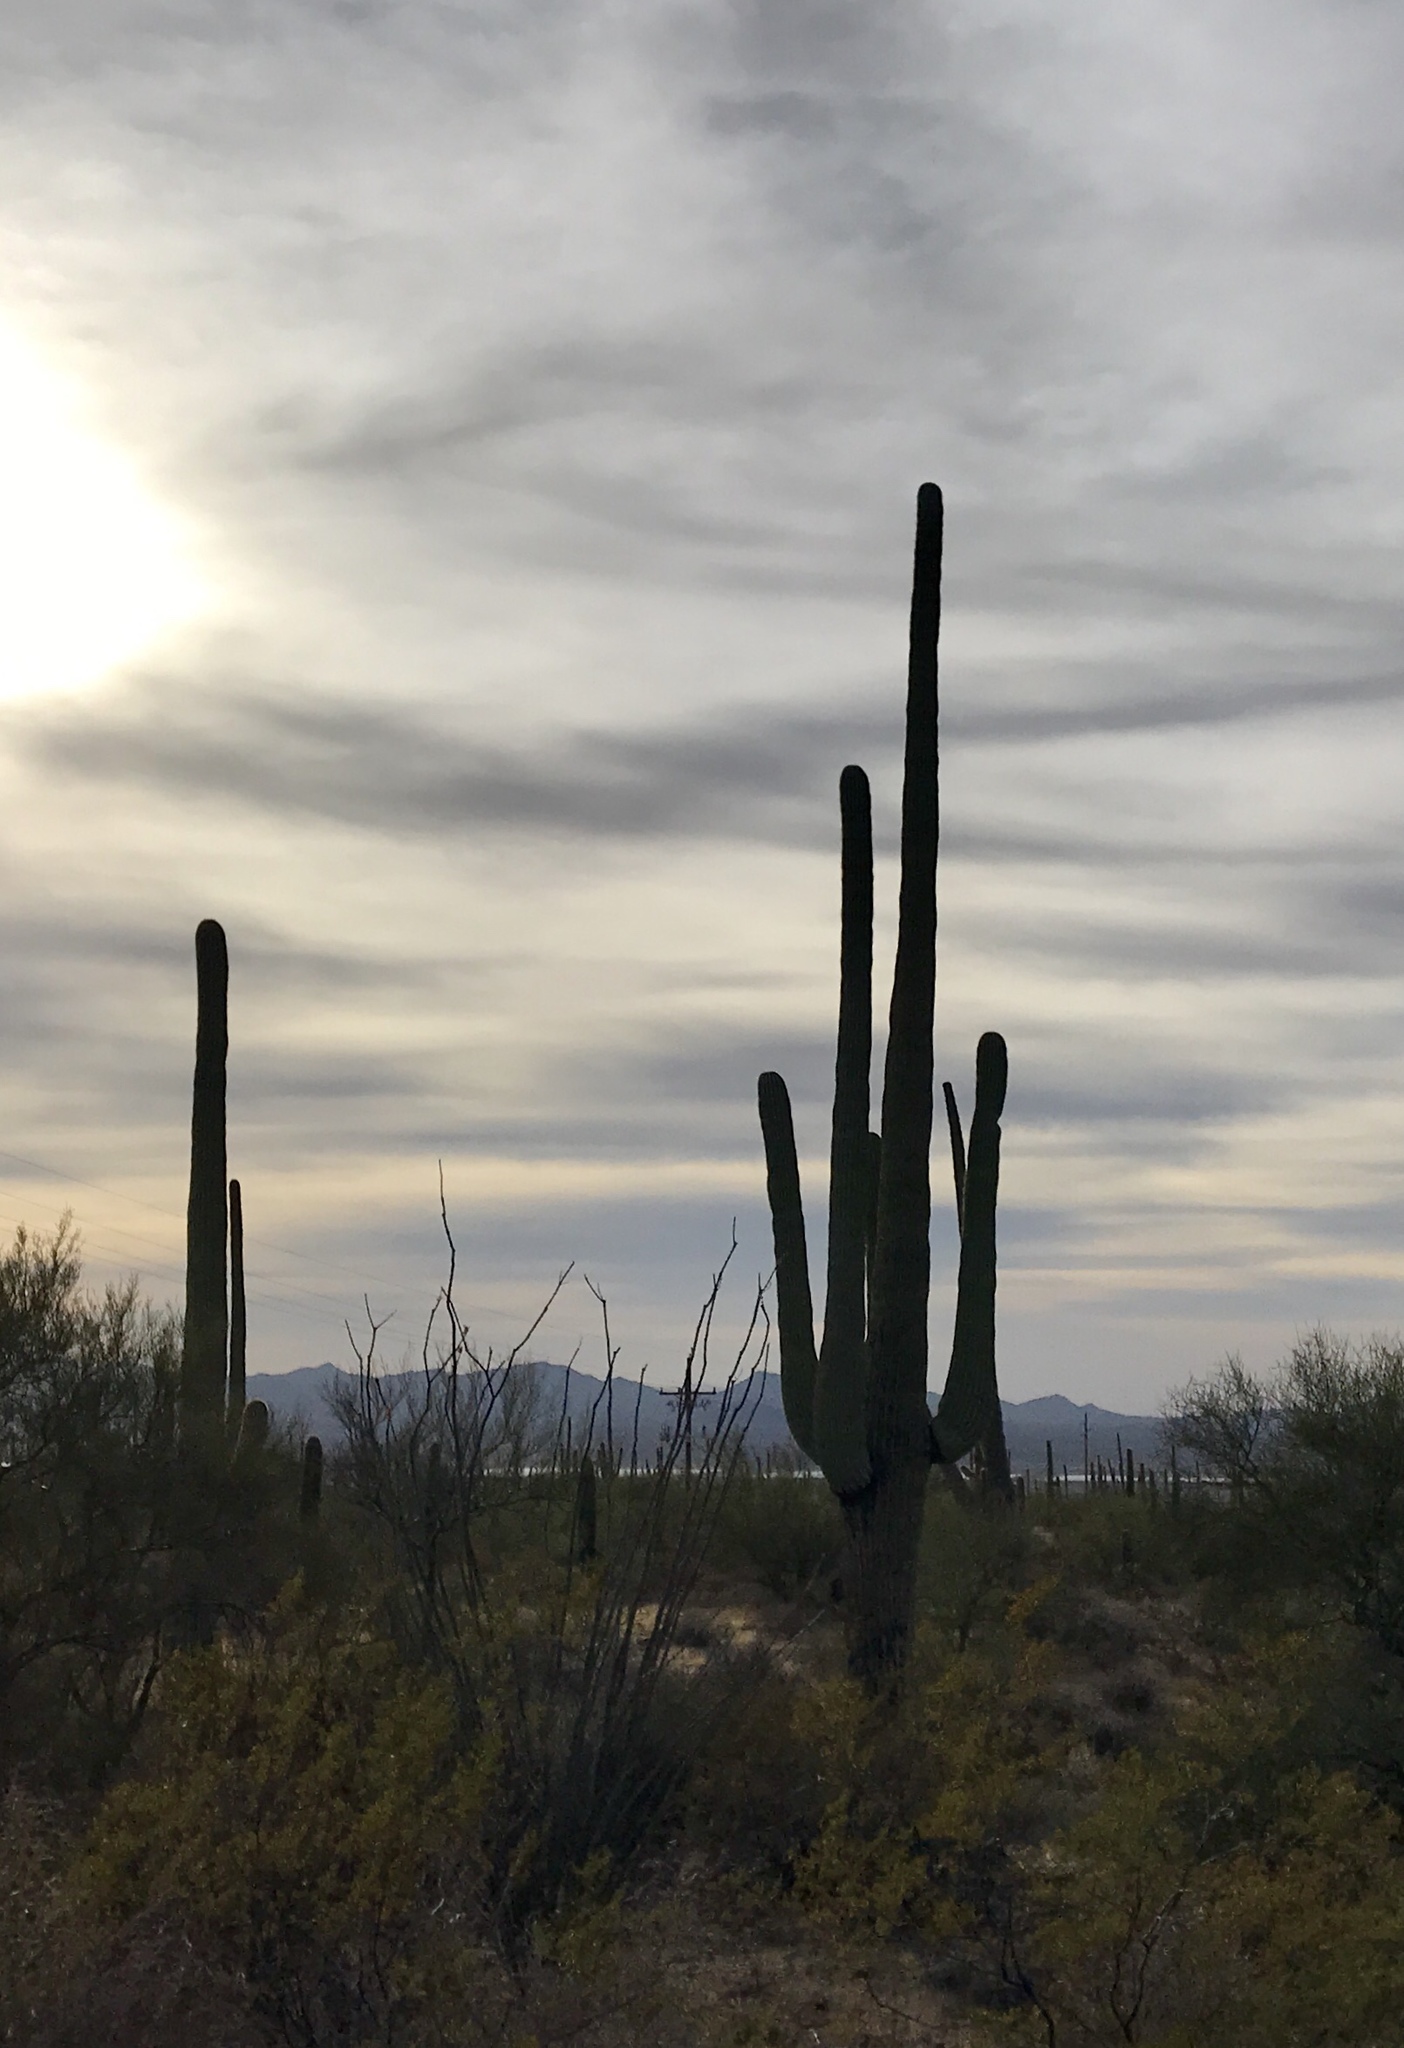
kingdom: Plantae
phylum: Tracheophyta
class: Magnoliopsida
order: Caryophyllales
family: Cactaceae
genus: Carnegiea
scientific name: Carnegiea gigantea
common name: Saguaro
